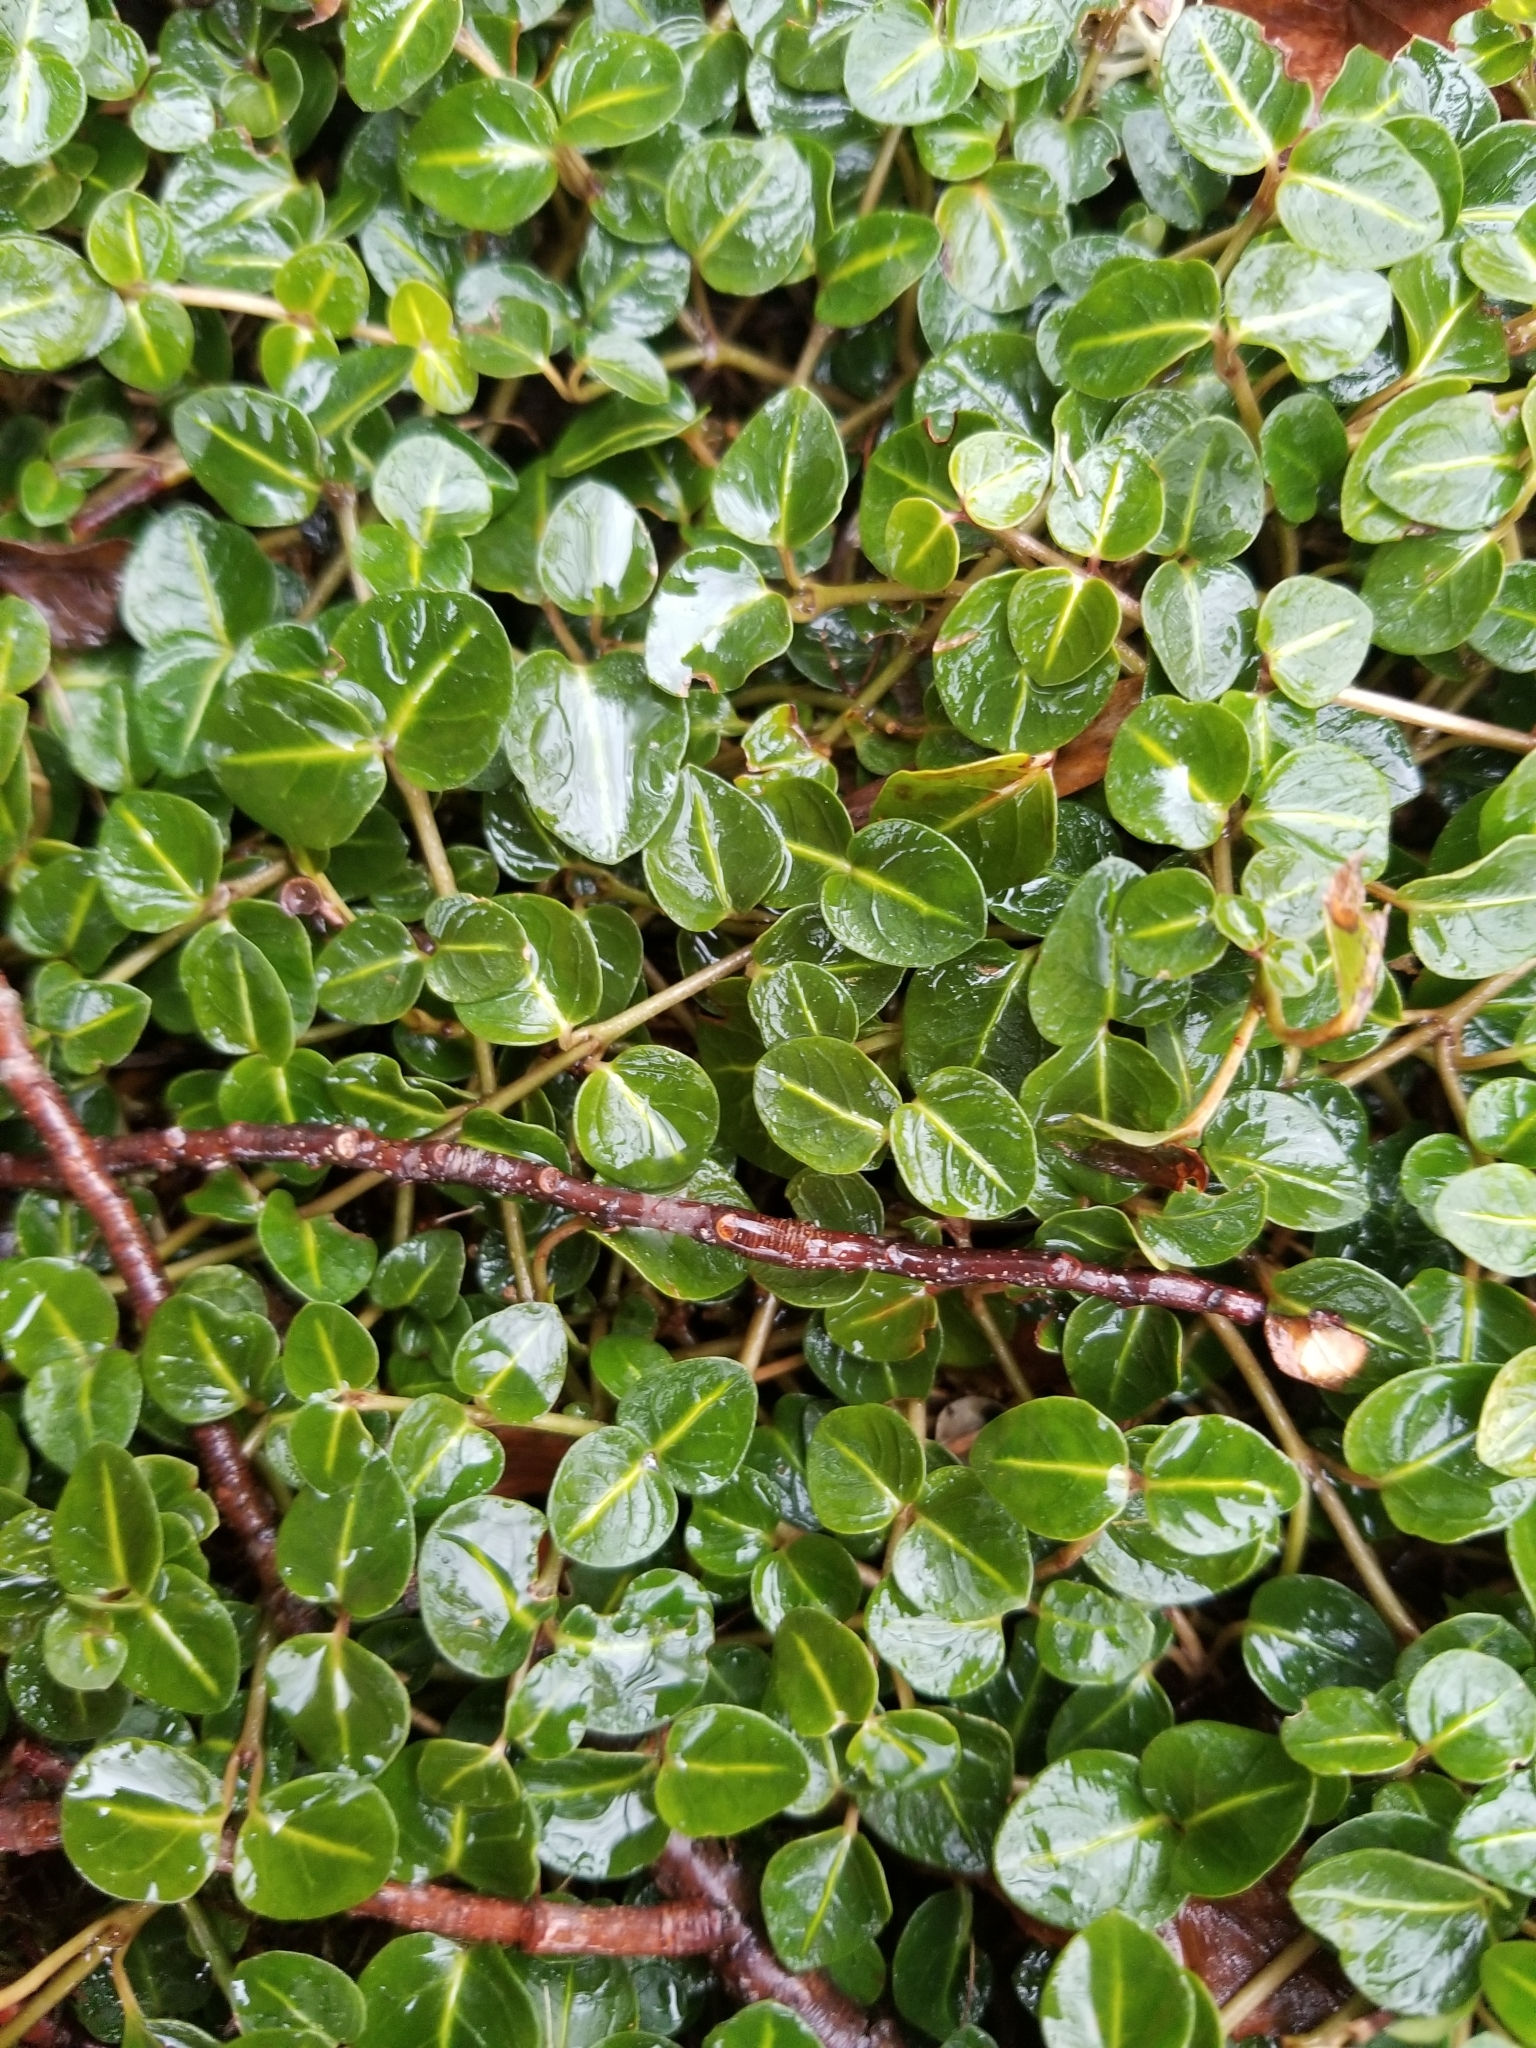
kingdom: Plantae
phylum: Tracheophyta
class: Magnoliopsida
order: Gentianales
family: Rubiaceae
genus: Mitchella
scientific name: Mitchella repens
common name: Partridge-berry
